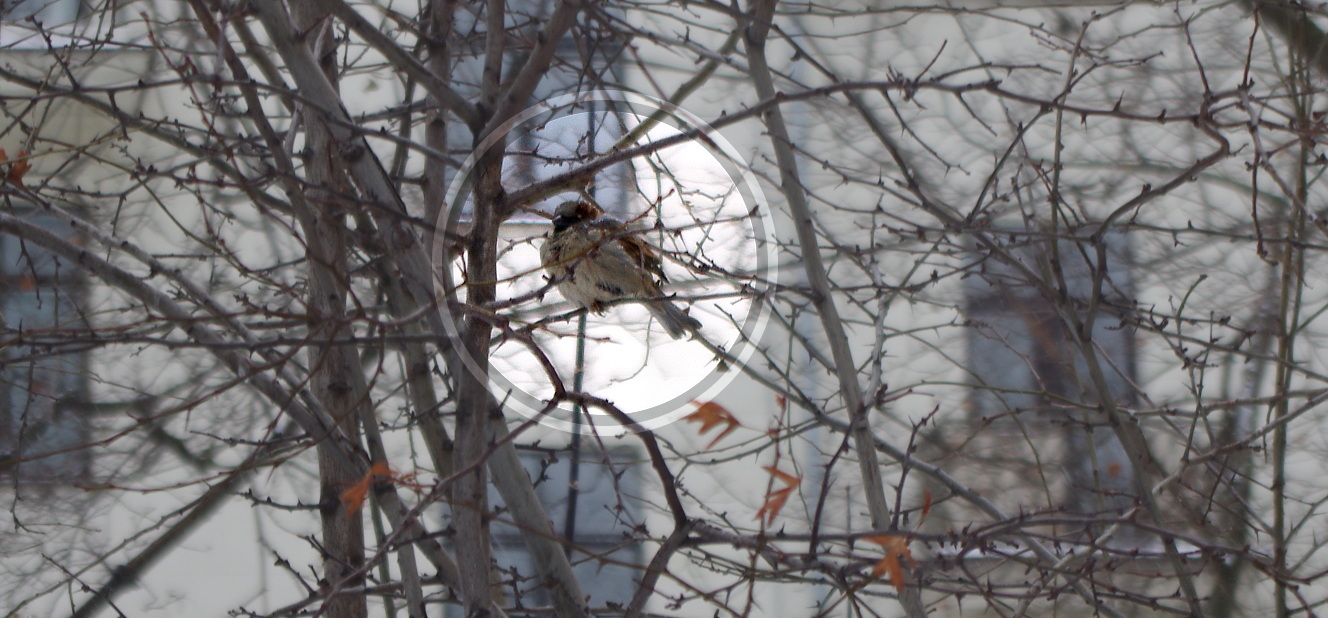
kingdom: Animalia
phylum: Chordata
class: Aves
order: Passeriformes
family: Passeridae
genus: Passer
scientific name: Passer domesticus
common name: House sparrow
